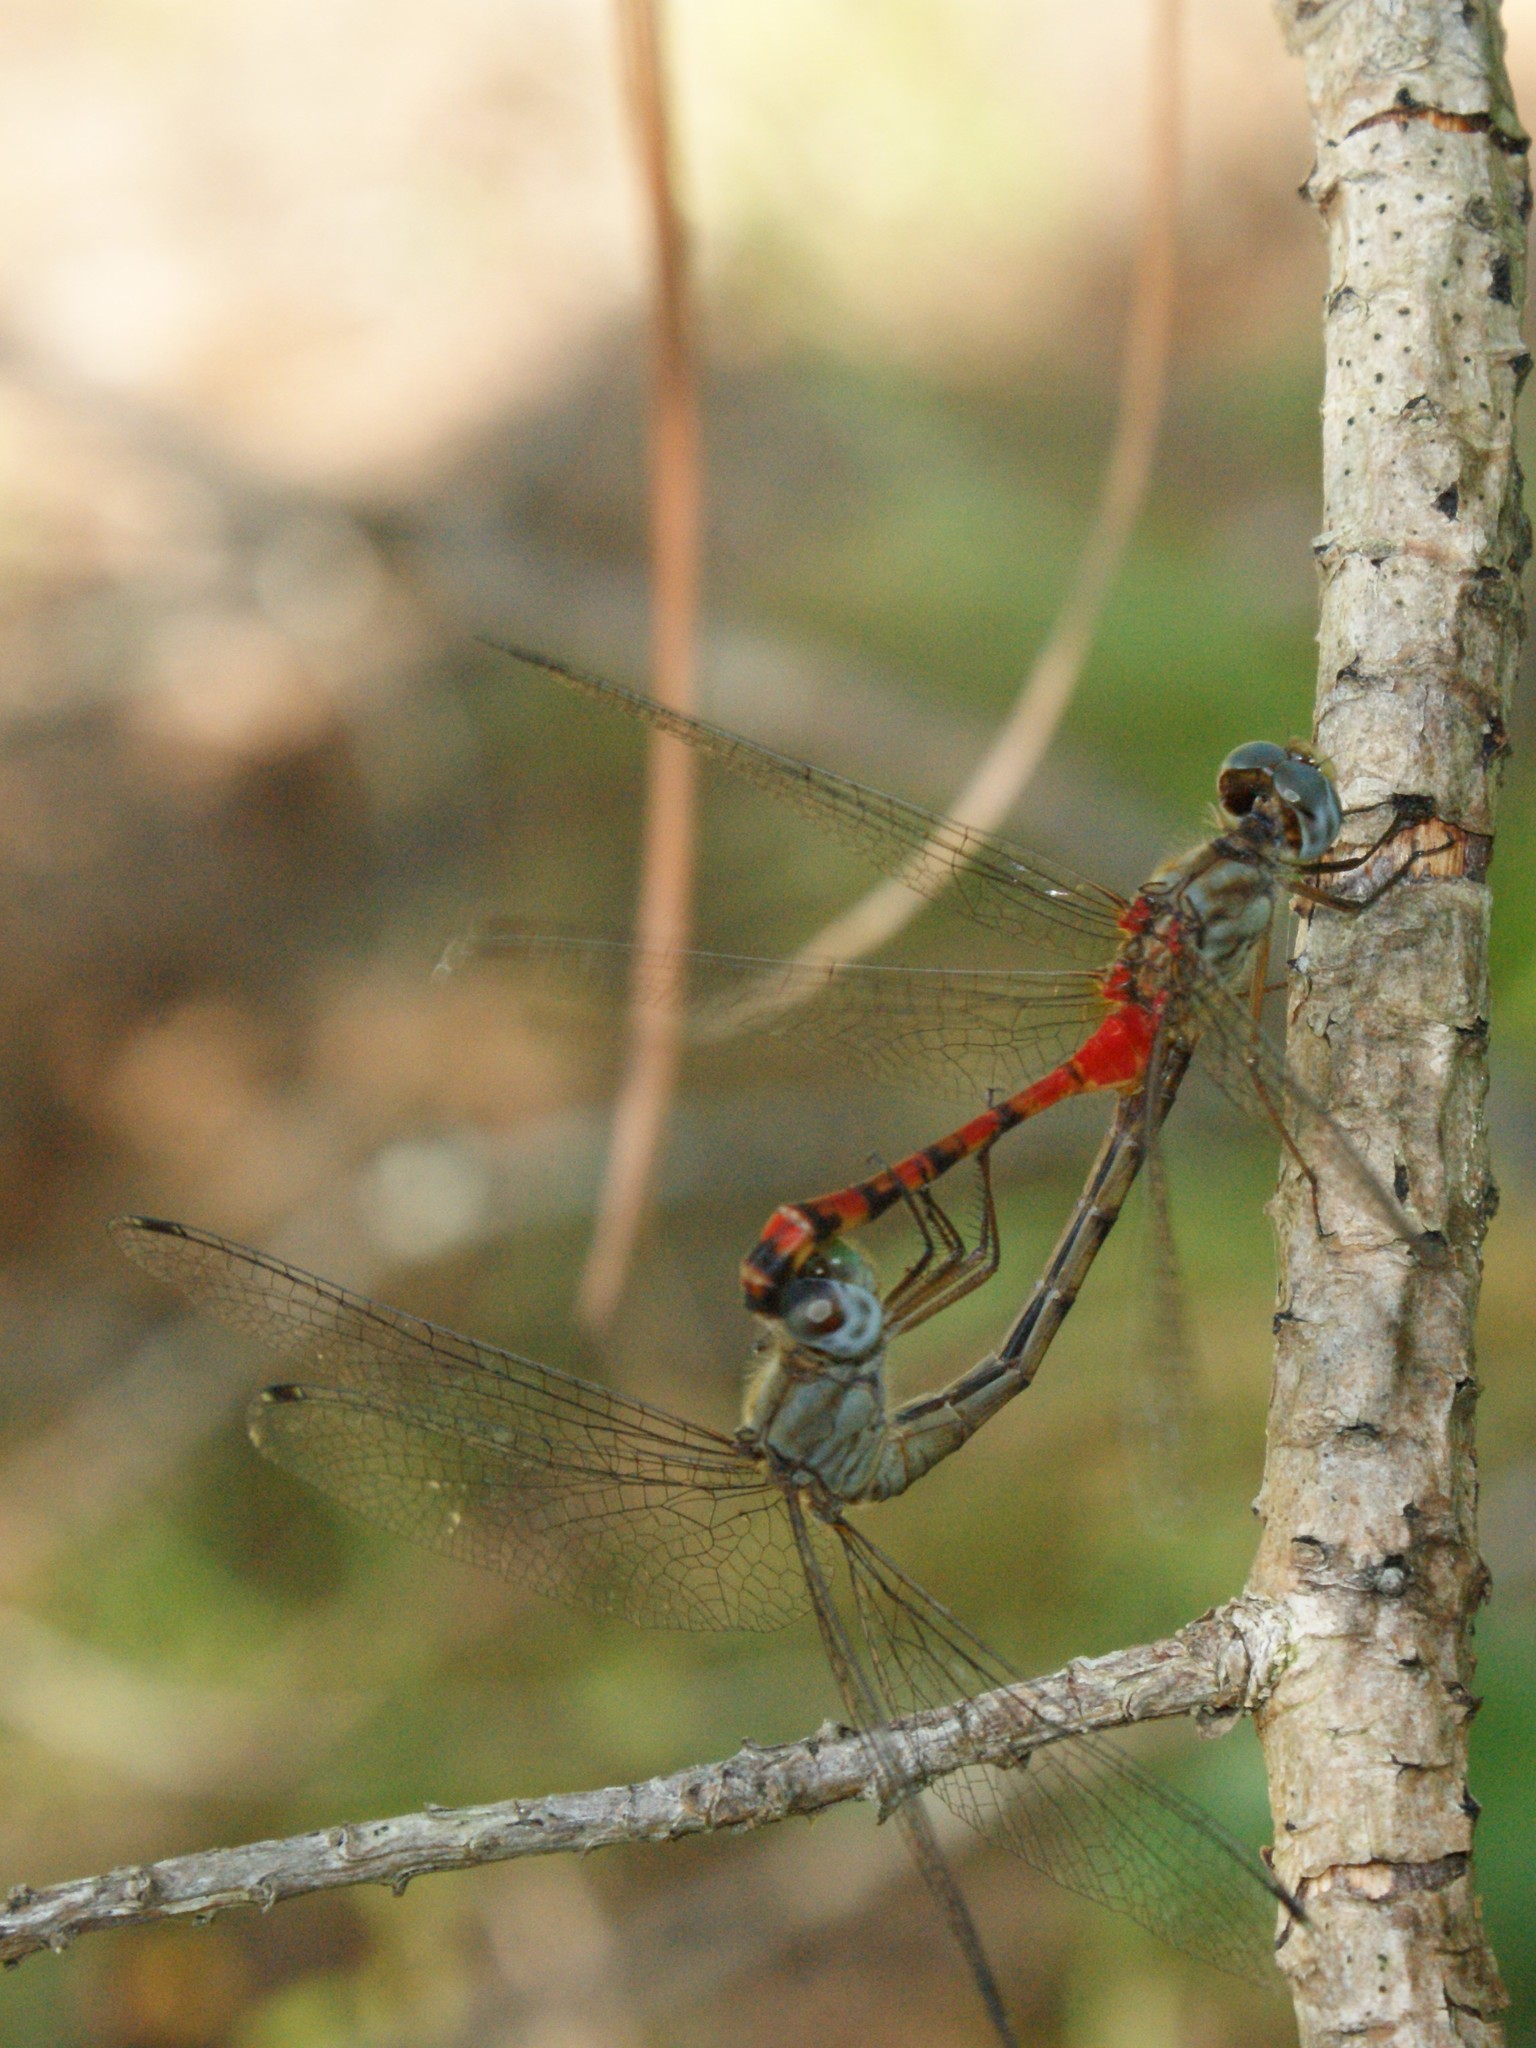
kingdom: Animalia
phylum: Arthropoda
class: Insecta
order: Odonata
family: Libellulidae
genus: Sympetrum
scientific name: Sympetrum ambiguum
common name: Blue-faced meadowhawk
